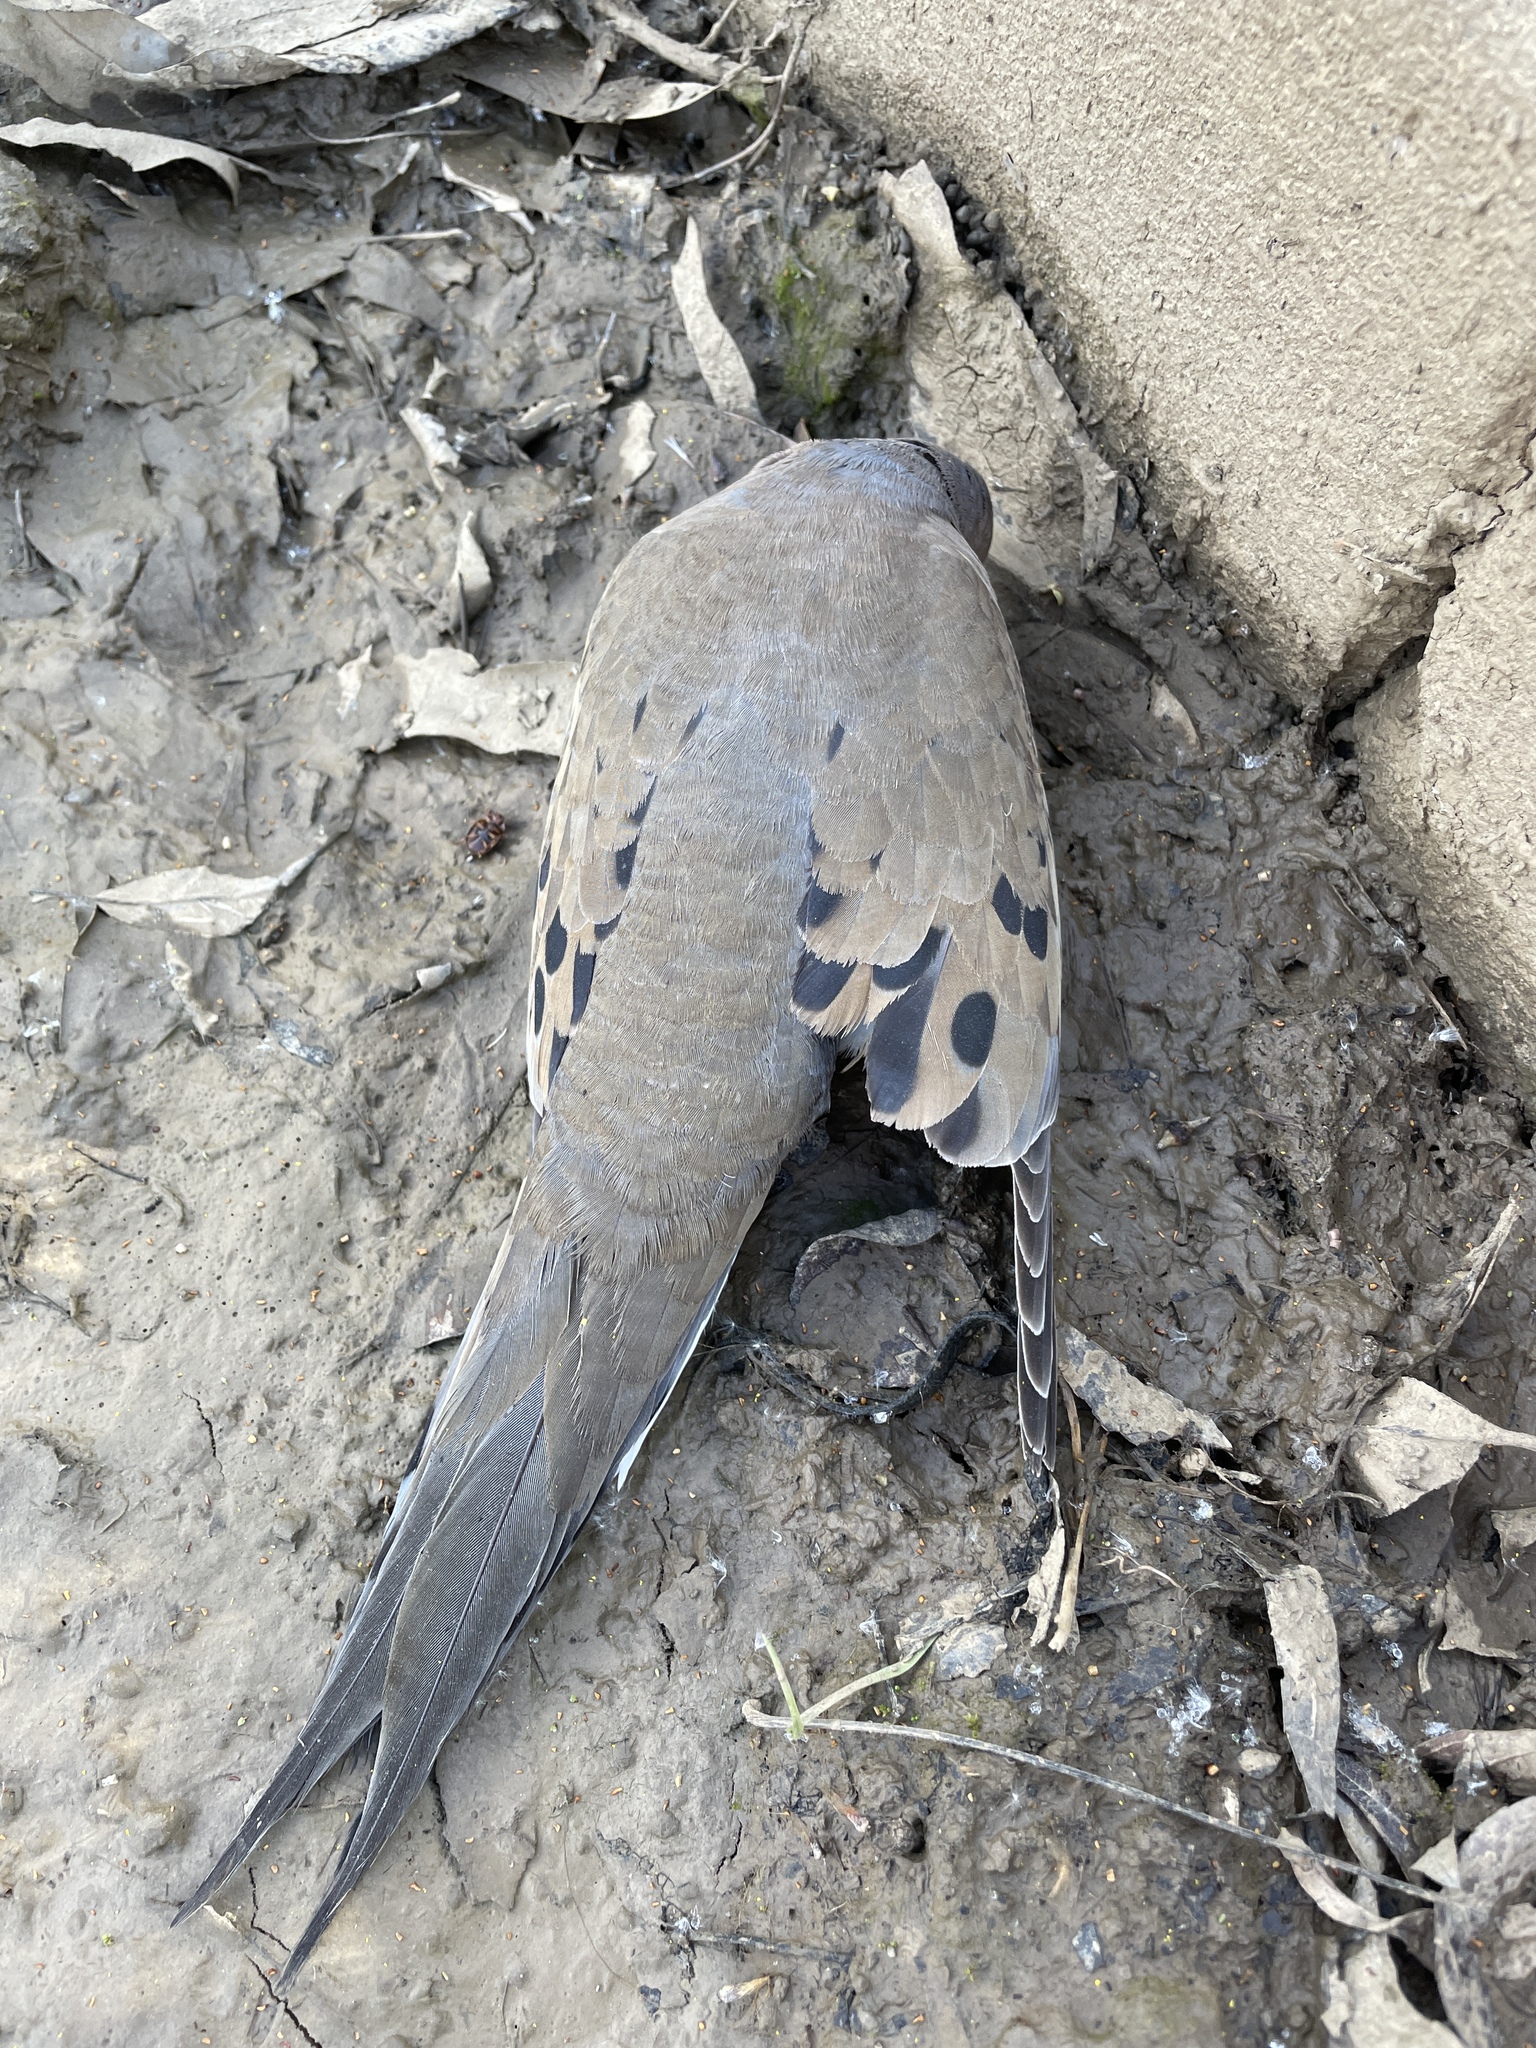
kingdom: Animalia
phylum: Chordata
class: Aves
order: Columbiformes
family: Columbidae
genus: Zenaida
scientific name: Zenaida macroura
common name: Mourning dove
